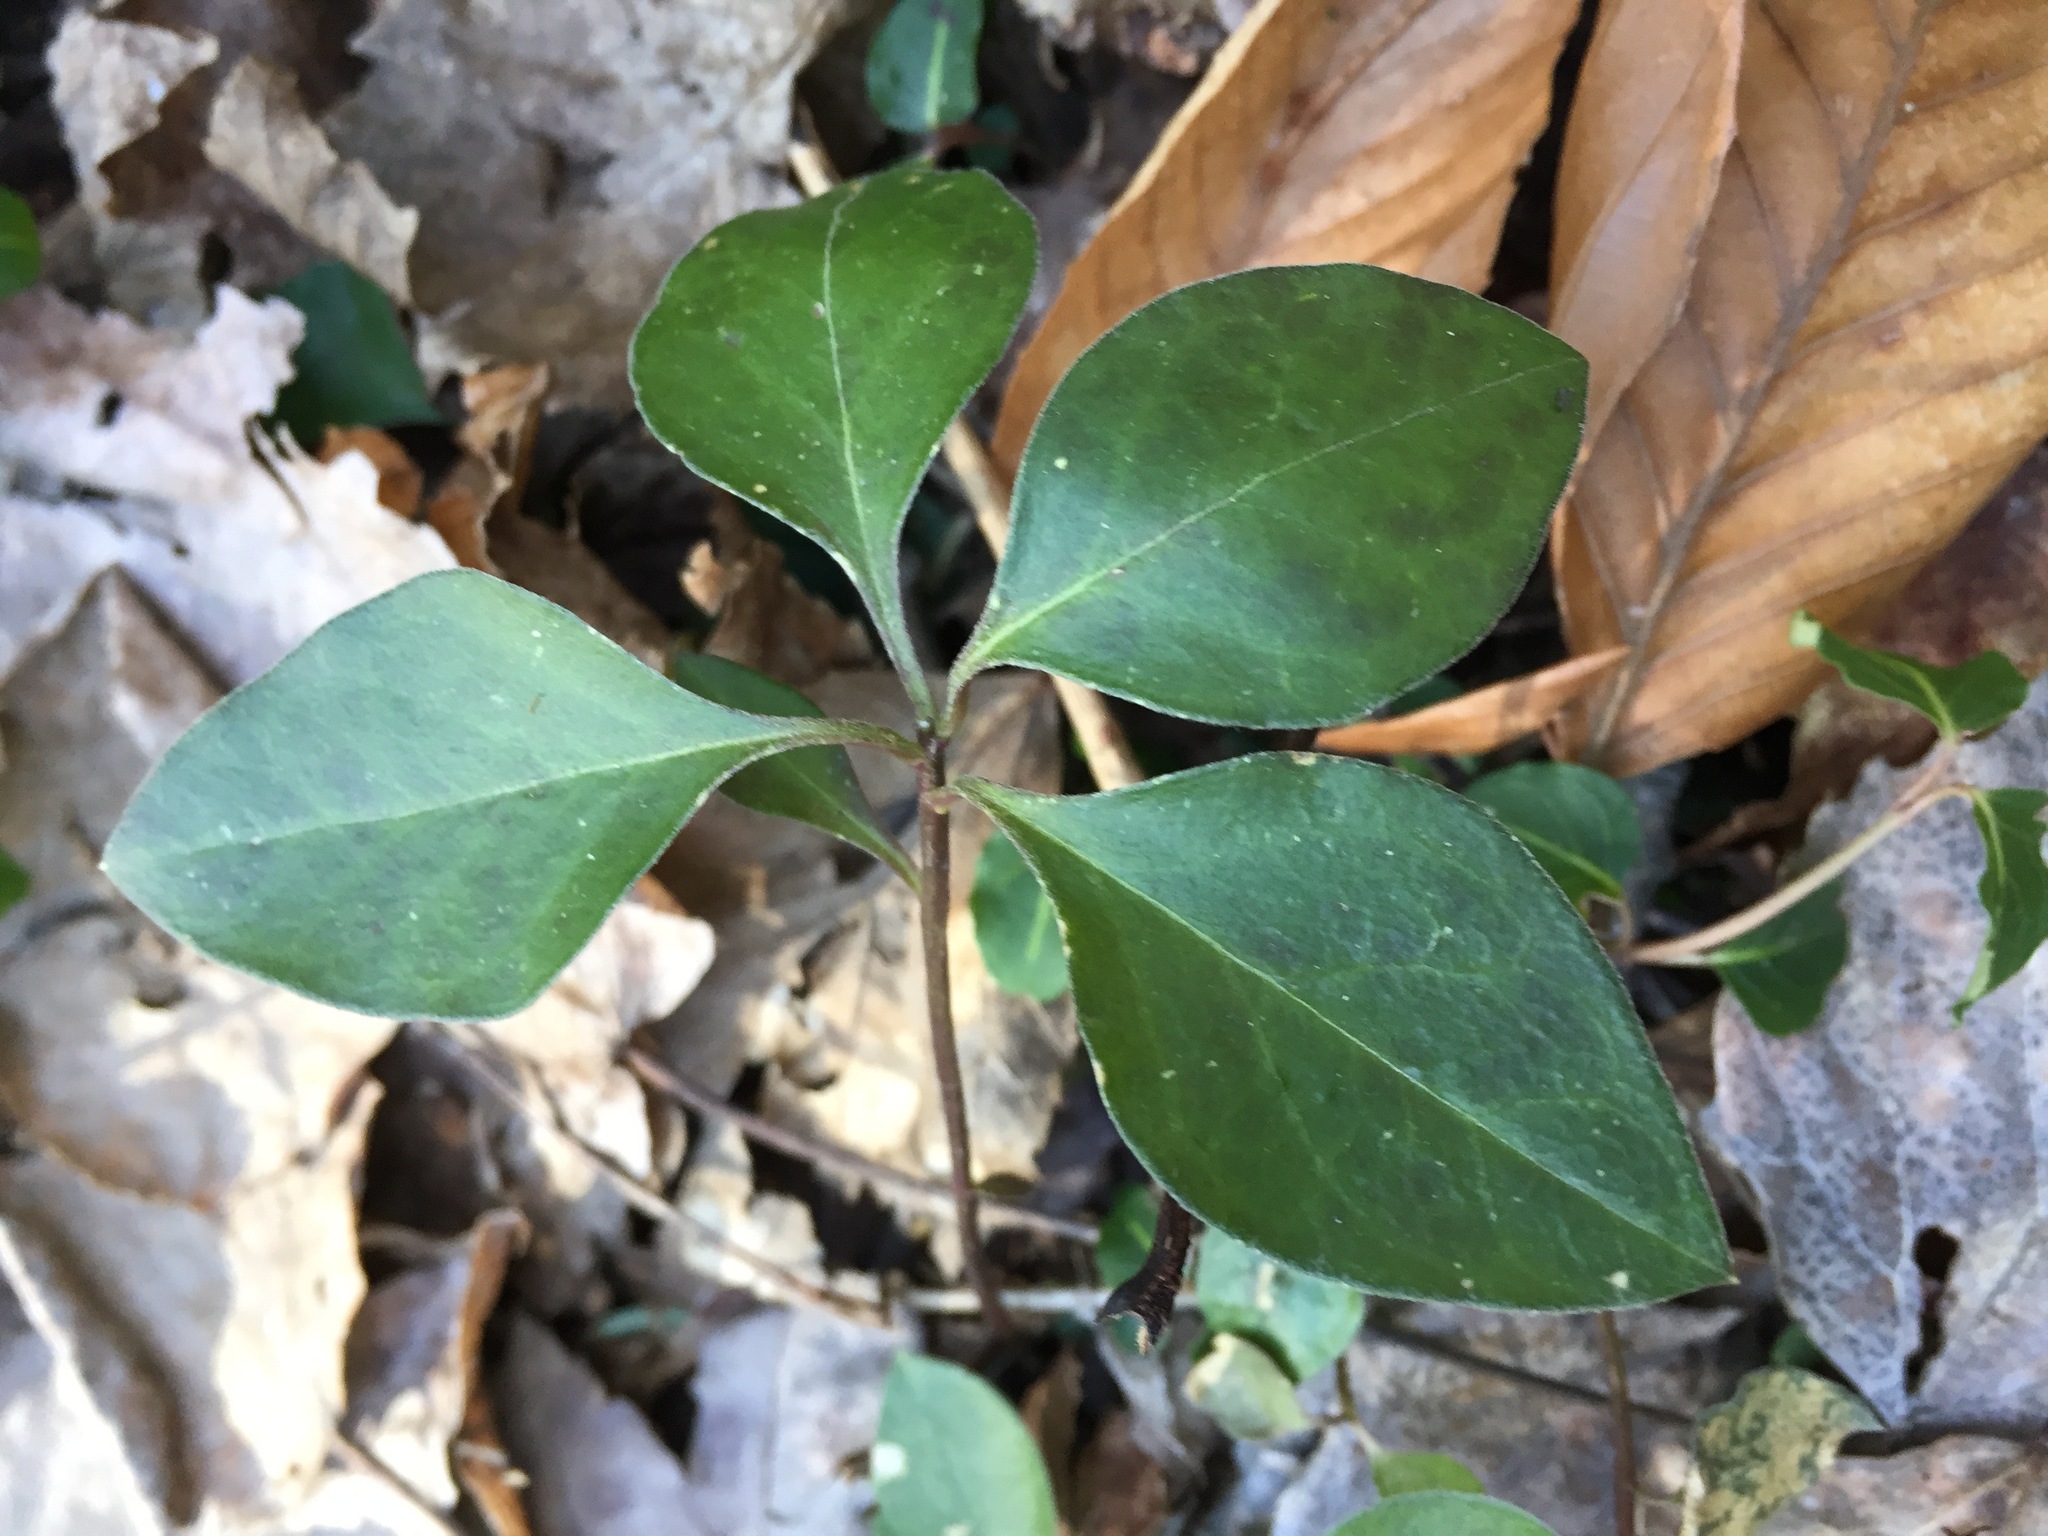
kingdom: Plantae
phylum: Tracheophyta
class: Magnoliopsida
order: Fabales
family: Polygalaceae
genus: Polygaloides
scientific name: Polygaloides paucifolia
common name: Bird-on-the-wing
